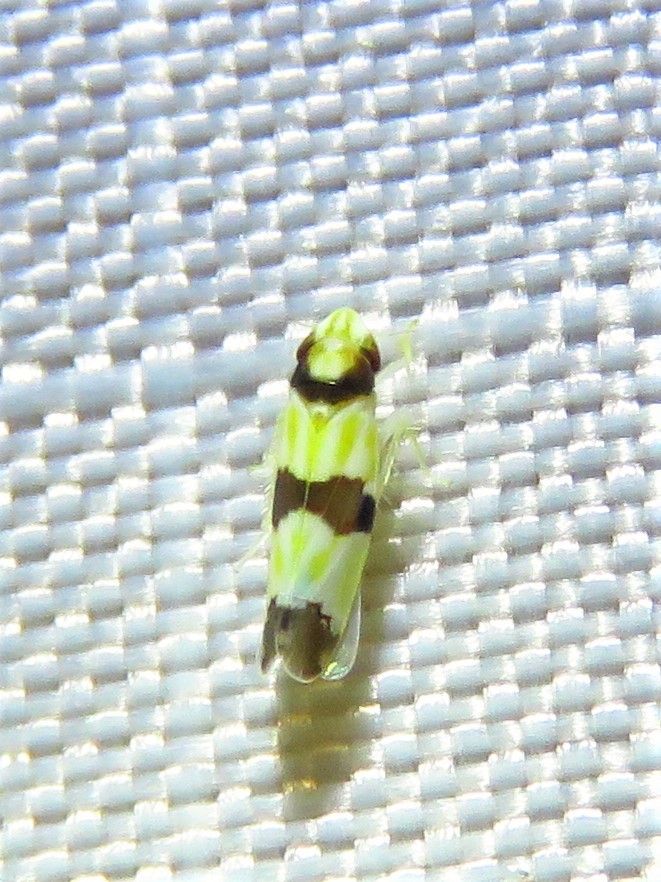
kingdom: Animalia
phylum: Arthropoda
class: Insecta
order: Hemiptera
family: Cicadellidae
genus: Erythroneura
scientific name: Erythroneura calycula
